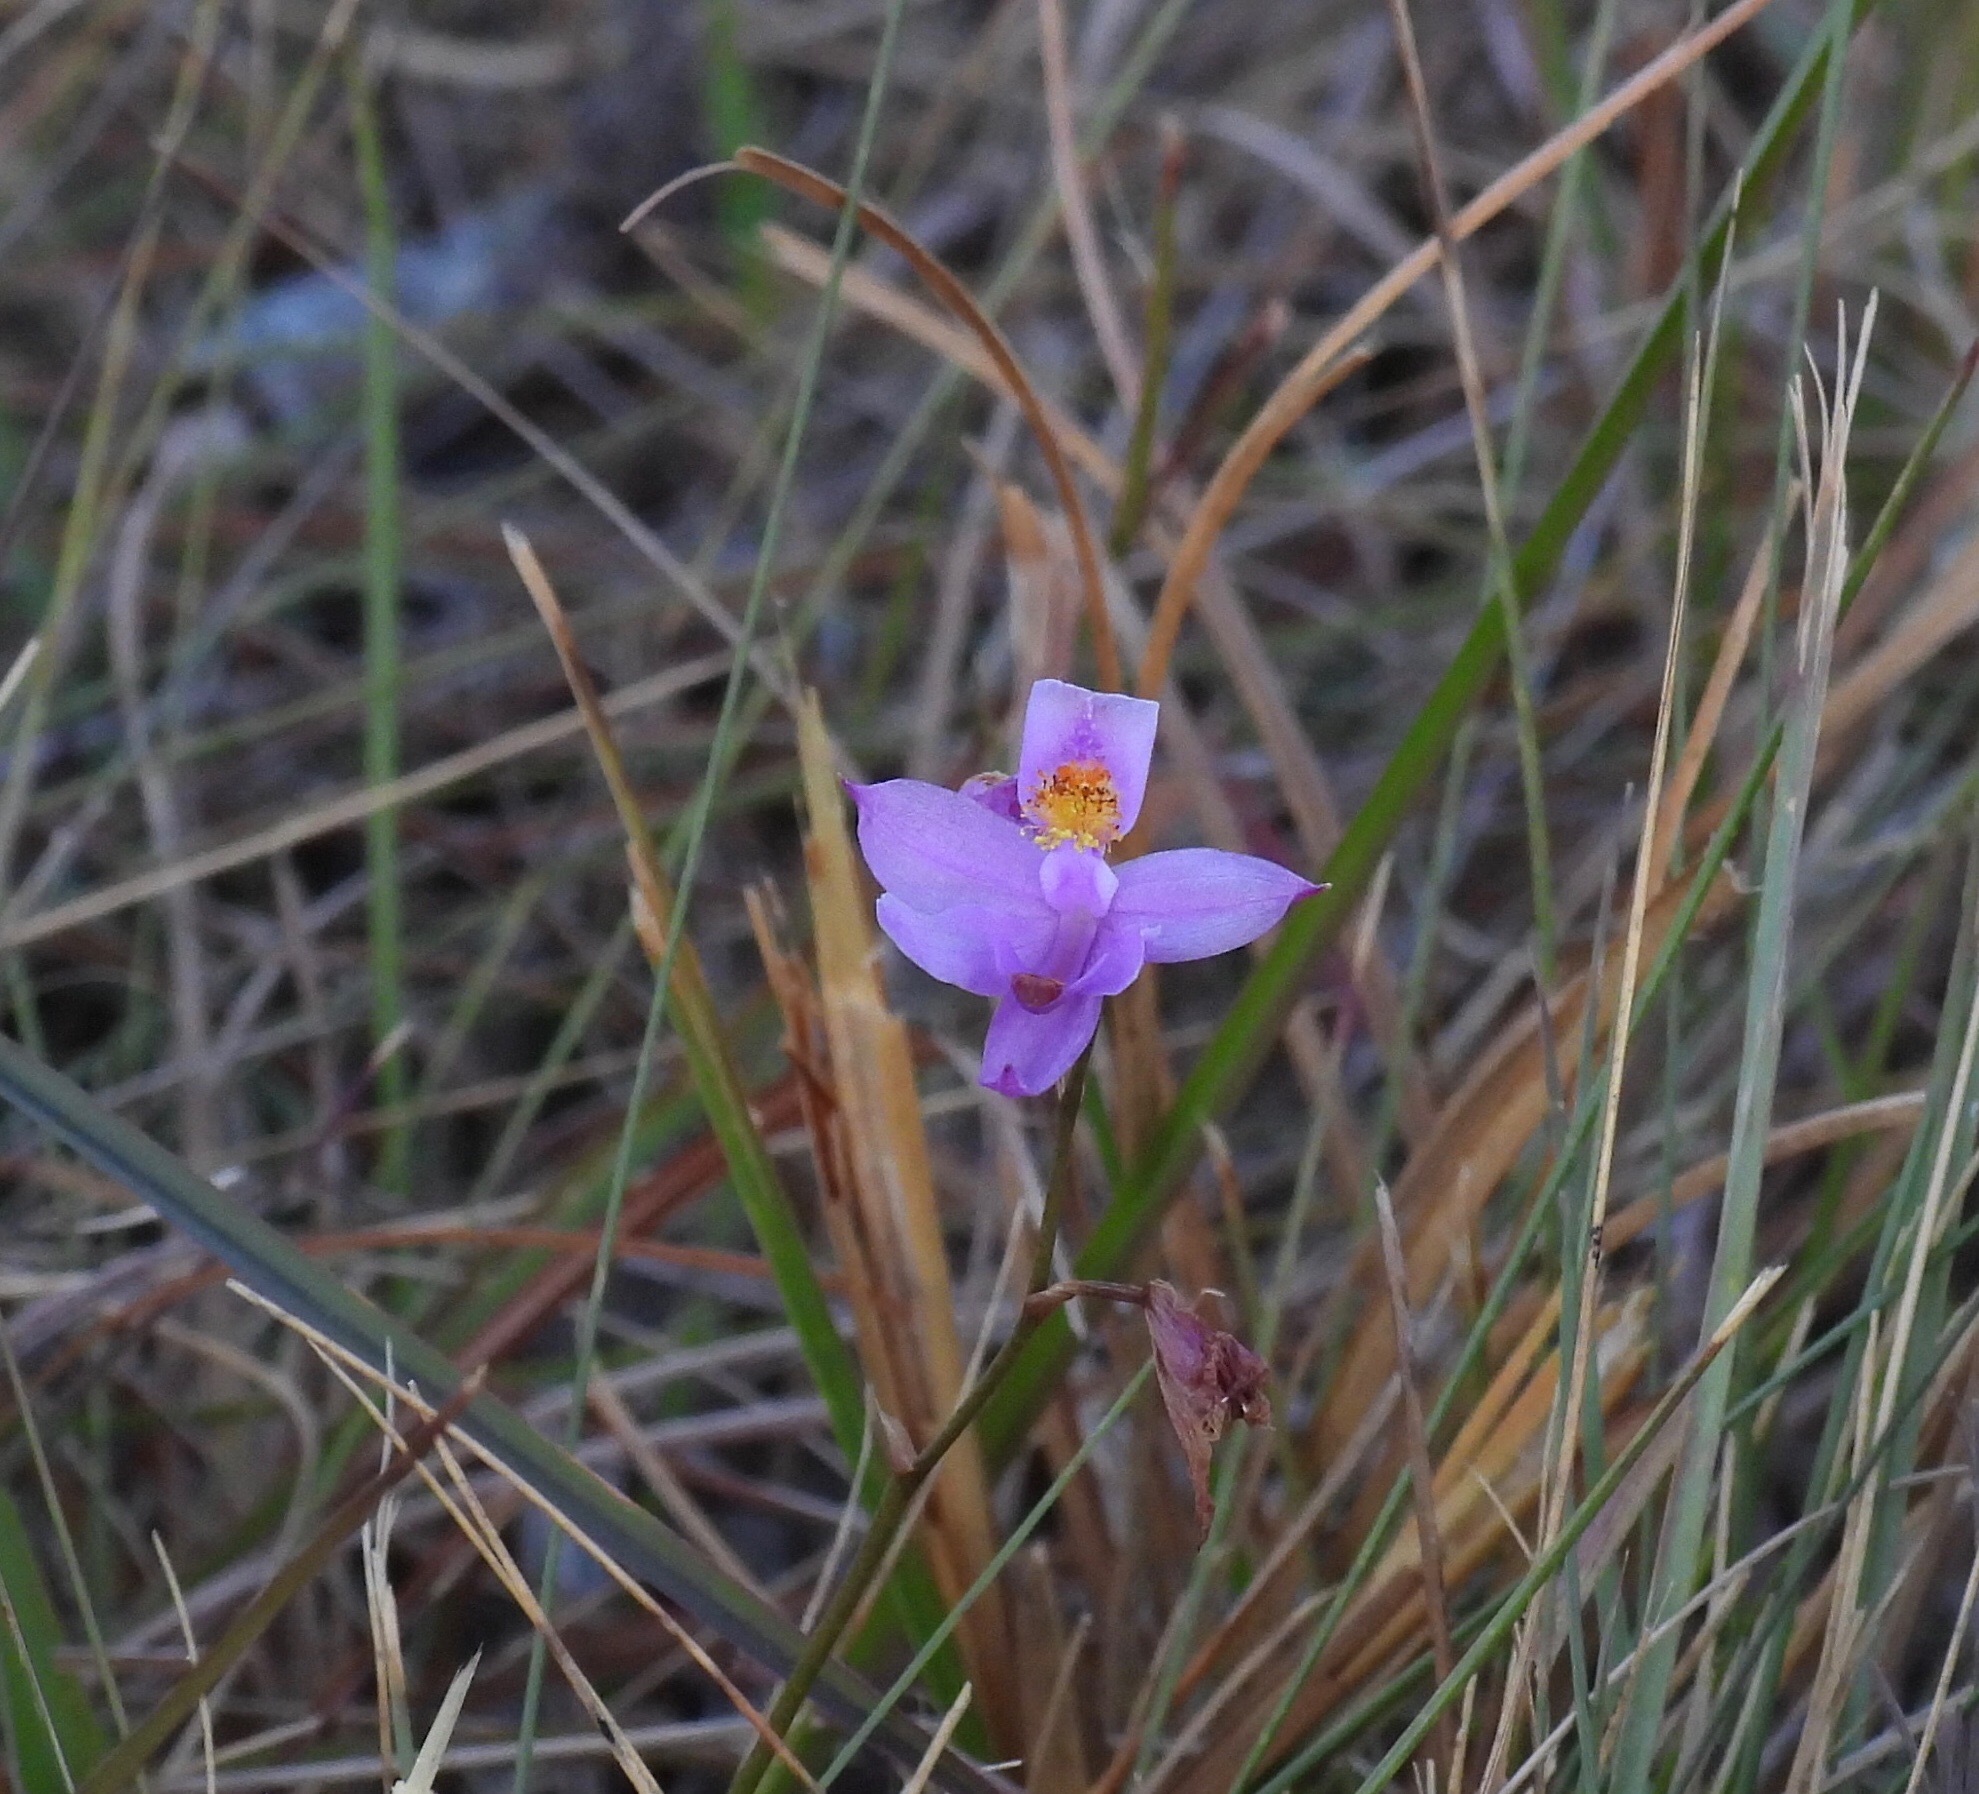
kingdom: Plantae
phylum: Tracheophyta
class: Liliopsida
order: Asparagales
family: Orchidaceae
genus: Calopogon
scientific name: Calopogon barbatus
